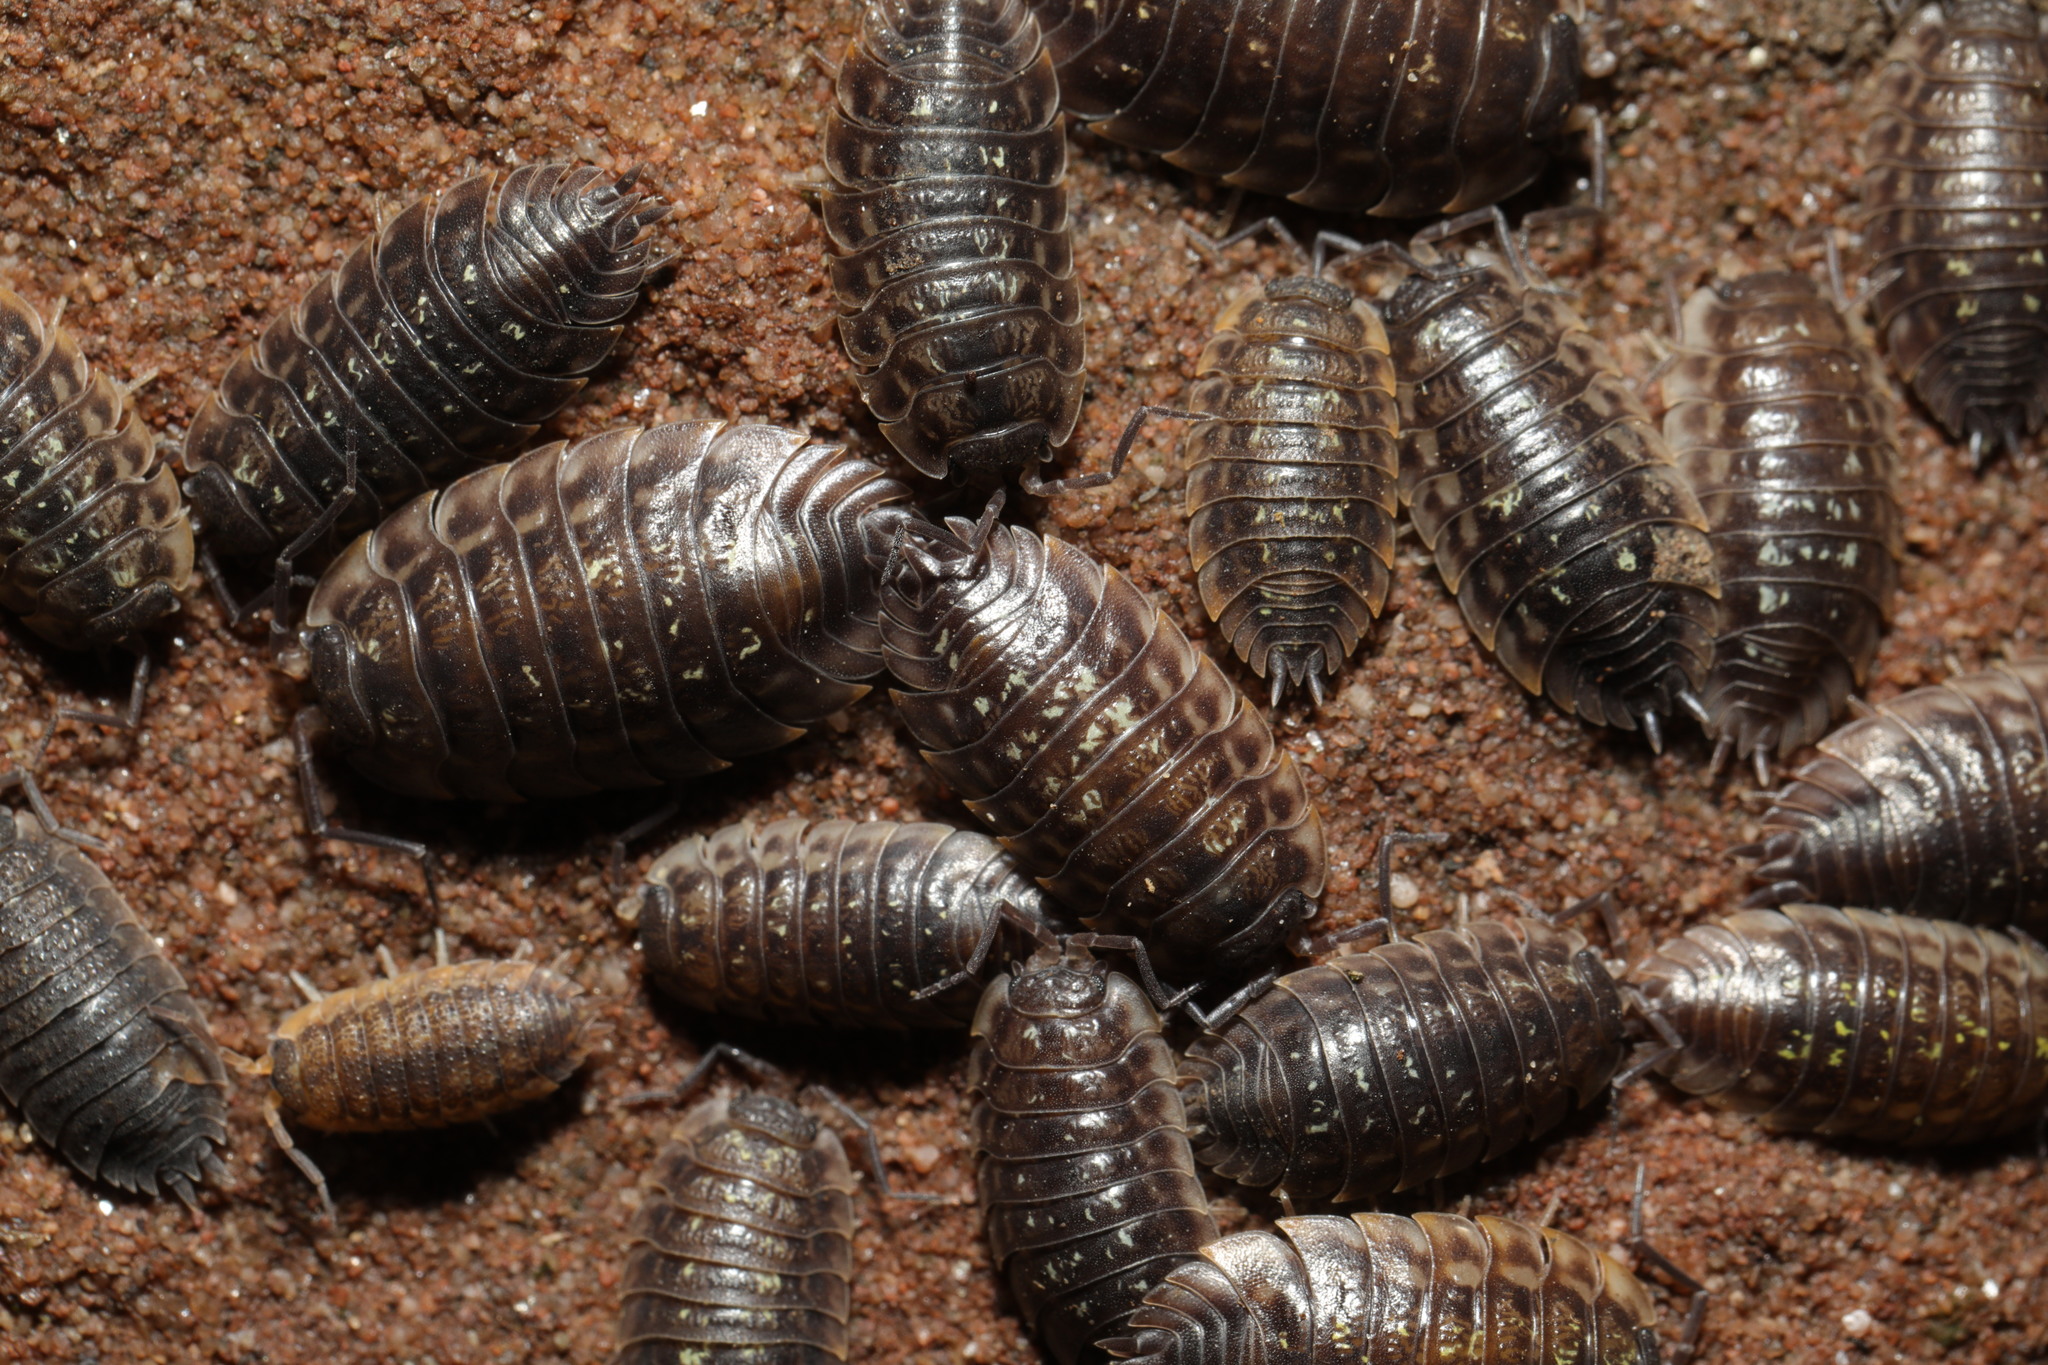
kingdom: Animalia
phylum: Arthropoda
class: Malacostraca
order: Isopoda
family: Oniscidae
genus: Oniscus
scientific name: Oniscus asellus
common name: Common shiny woodlouse
